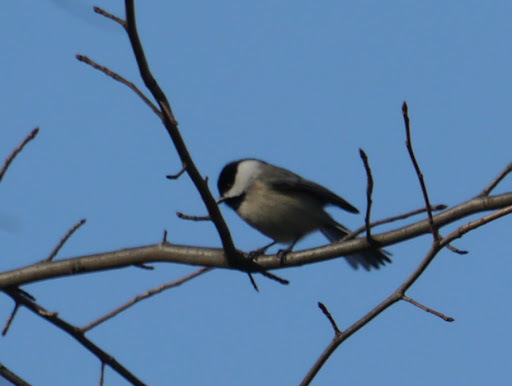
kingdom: Animalia
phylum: Chordata
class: Aves
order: Passeriformes
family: Paridae
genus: Poecile
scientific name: Poecile carolinensis
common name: Carolina chickadee
